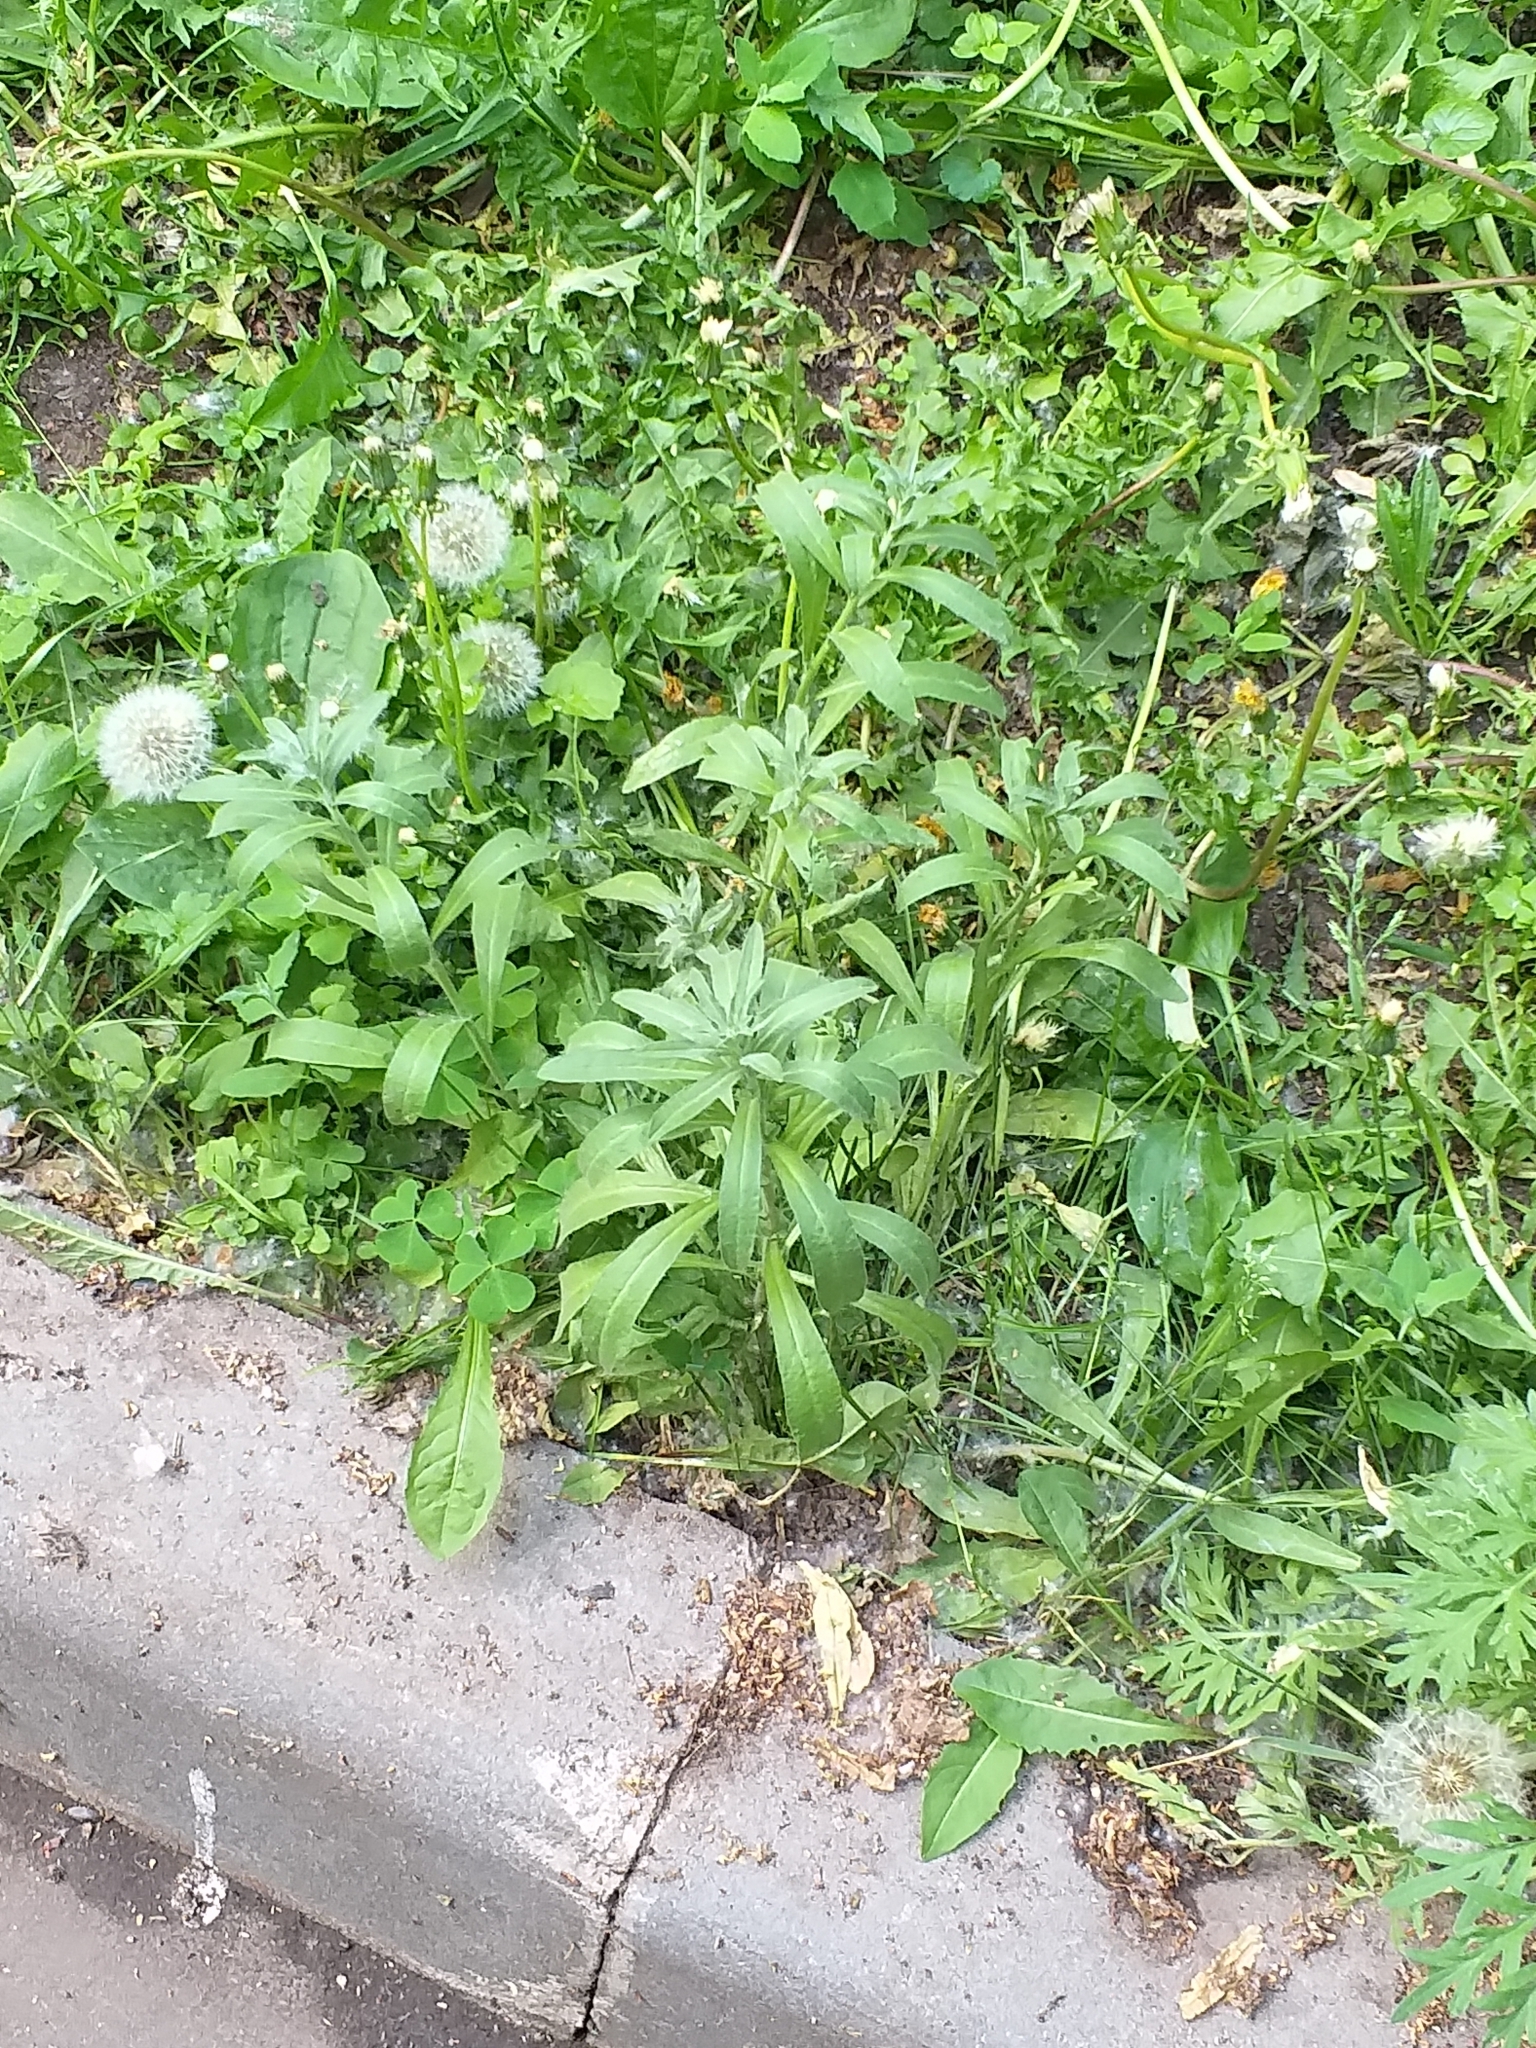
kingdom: Plantae
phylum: Tracheophyta
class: Magnoliopsida
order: Brassicales
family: Brassicaceae
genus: Berteroa
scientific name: Berteroa incana
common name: Hoary alison
